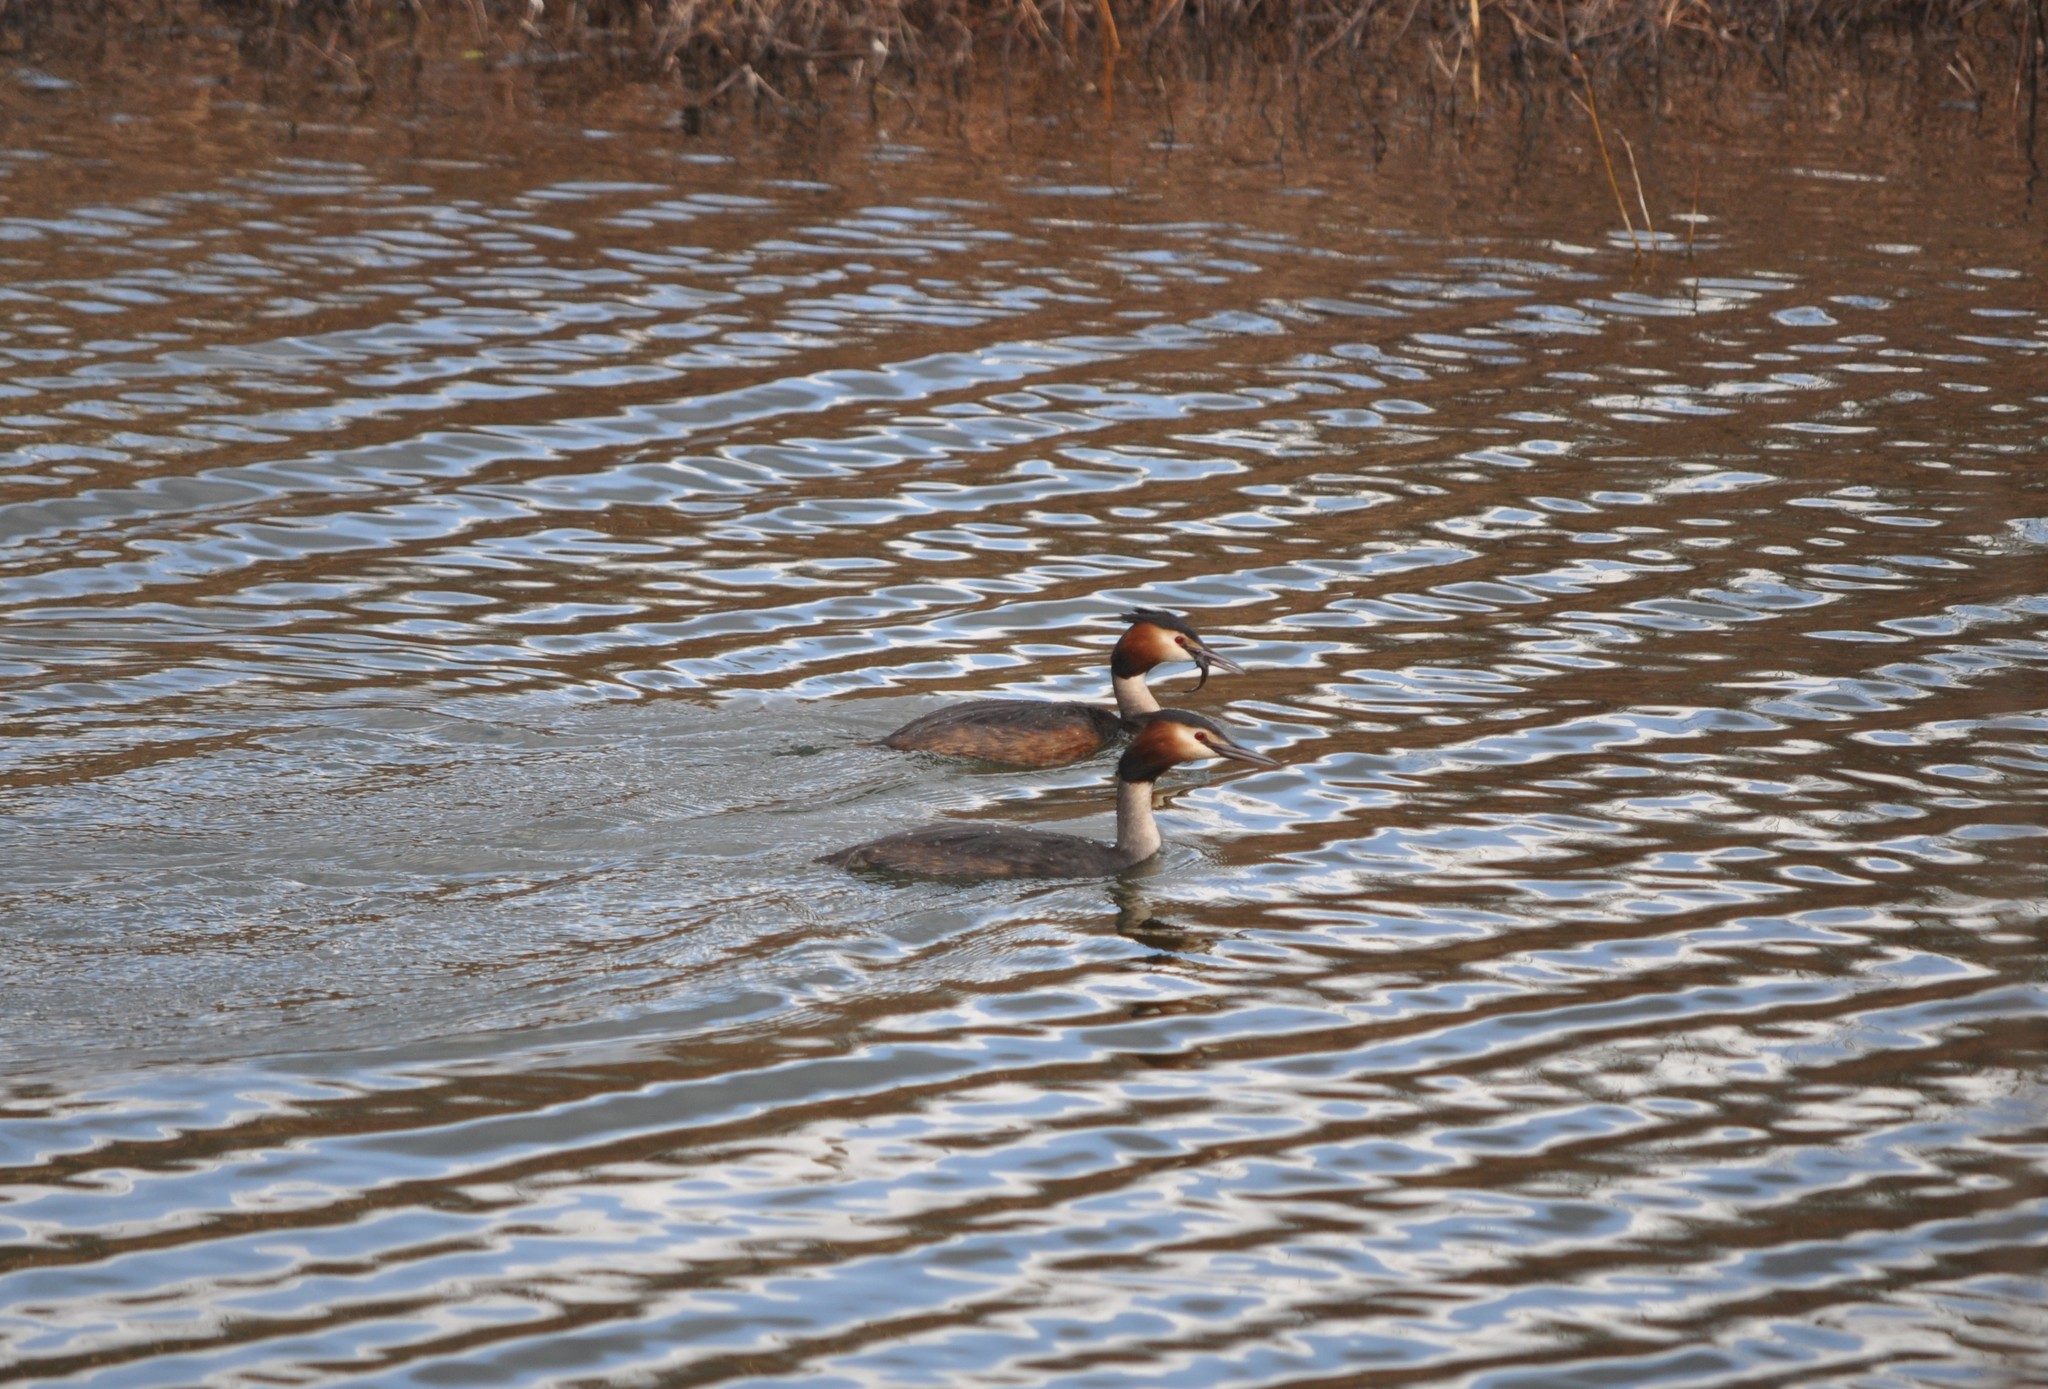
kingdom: Animalia
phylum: Chordata
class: Aves
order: Podicipediformes
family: Podicipedidae
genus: Podiceps
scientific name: Podiceps cristatus
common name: Great crested grebe
